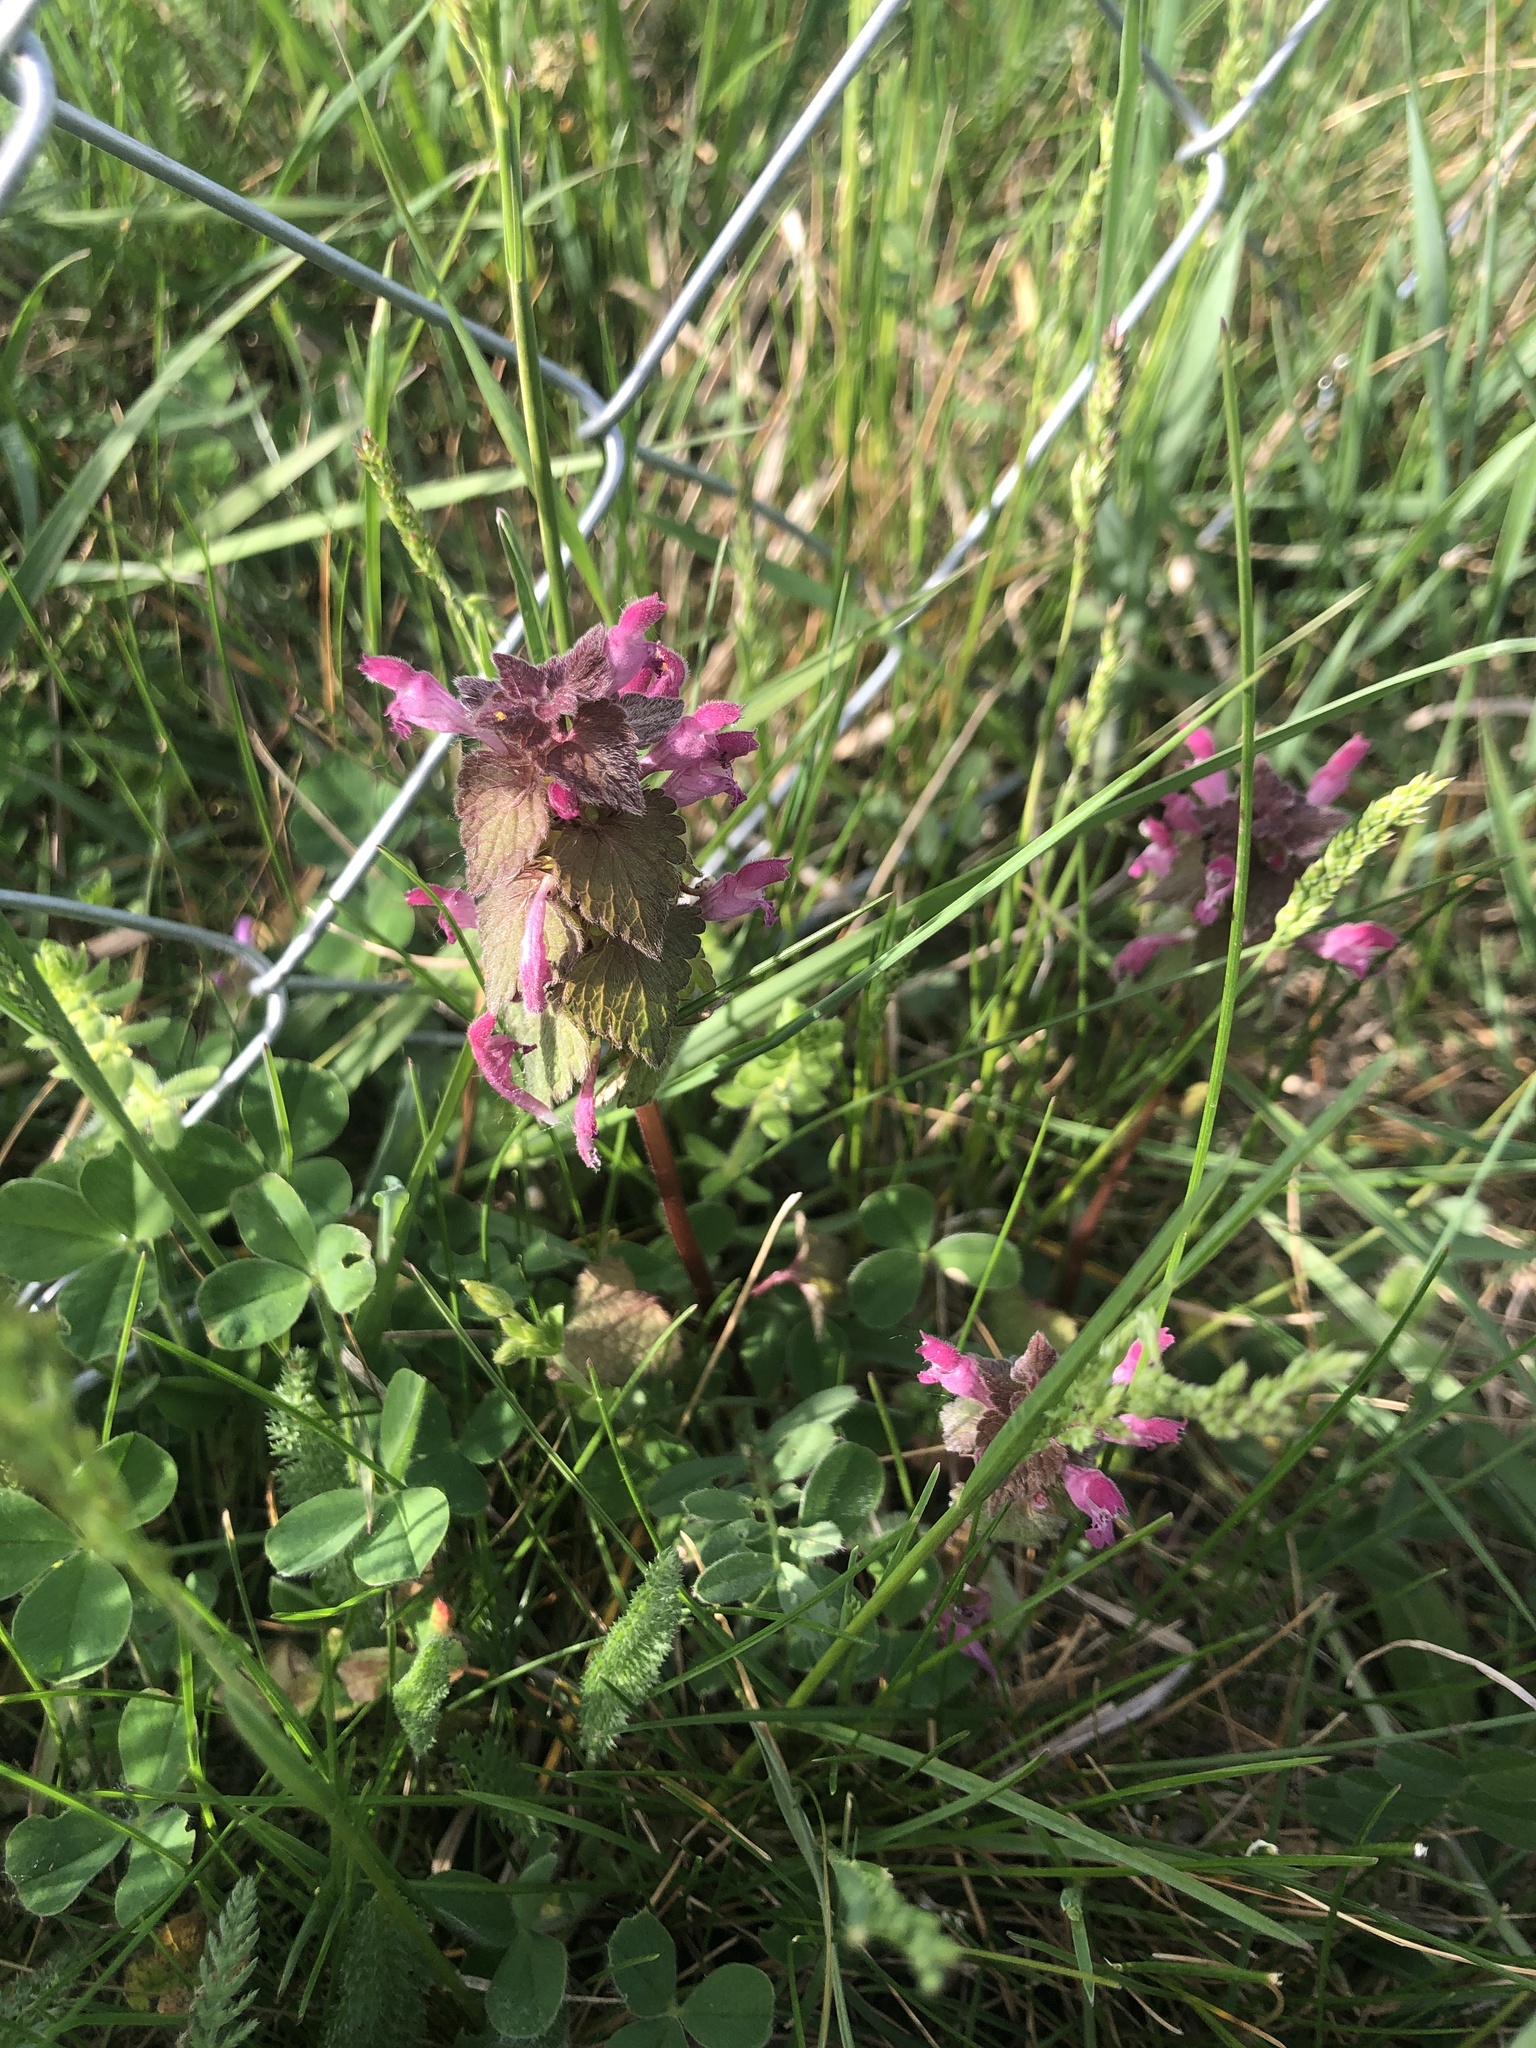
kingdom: Plantae
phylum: Tracheophyta
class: Magnoliopsida
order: Lamiales
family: Lamiaceae
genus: Lamium
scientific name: Lamium purpureum
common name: Red dead-nettle
